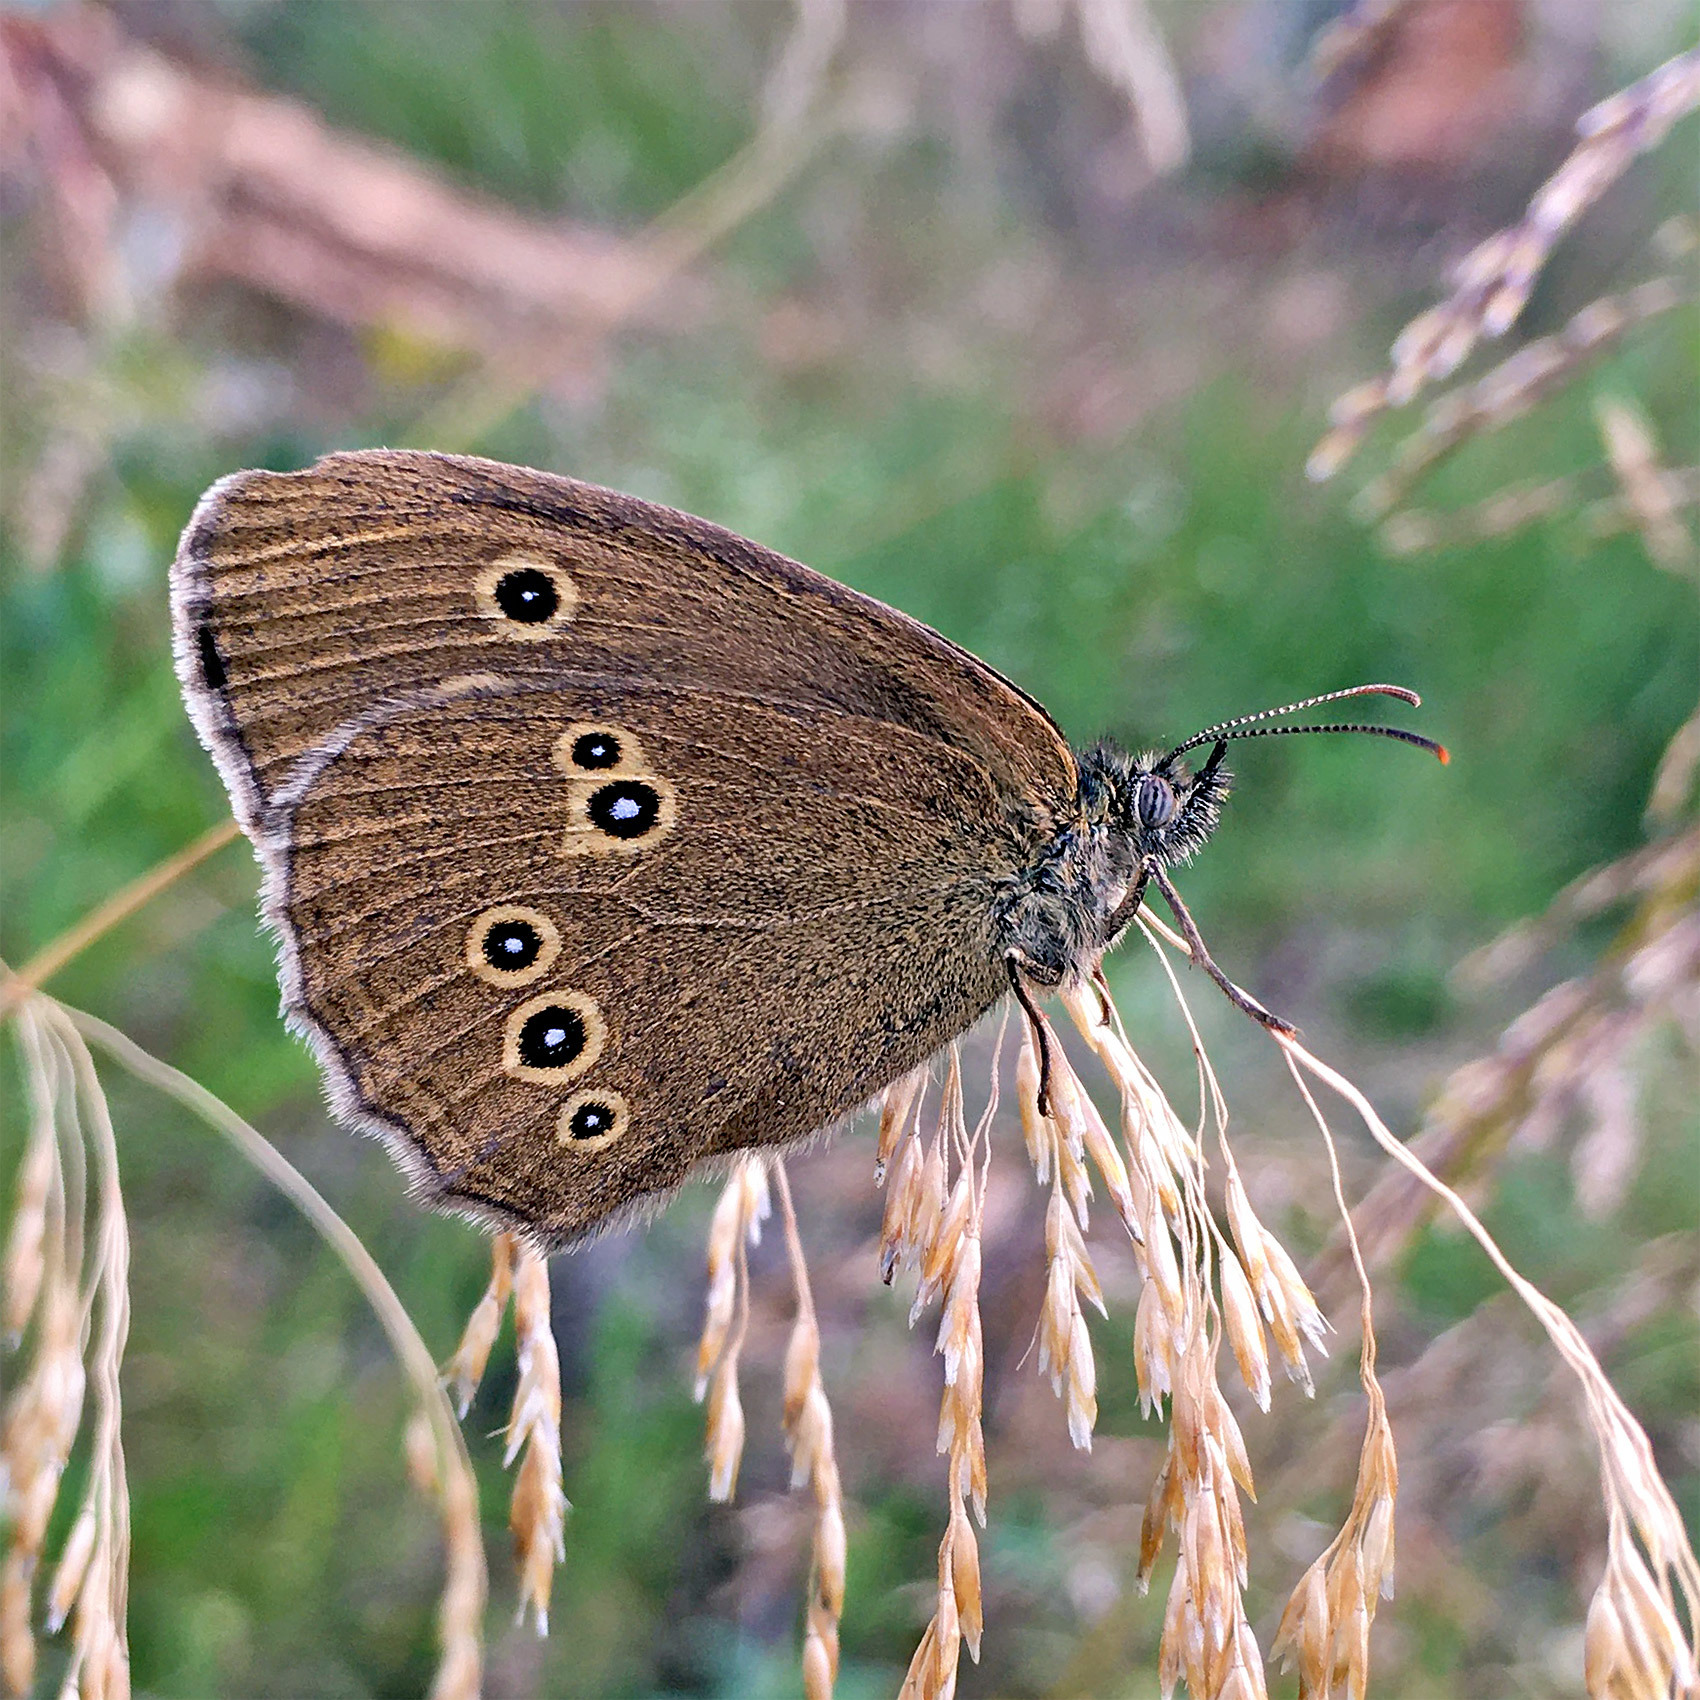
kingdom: Animalia
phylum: Arthropoda
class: Insecta
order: Lepidoptera
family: Nymphalidae
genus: Aphantopus
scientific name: Aphantopus hyperantus
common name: Ringlet
